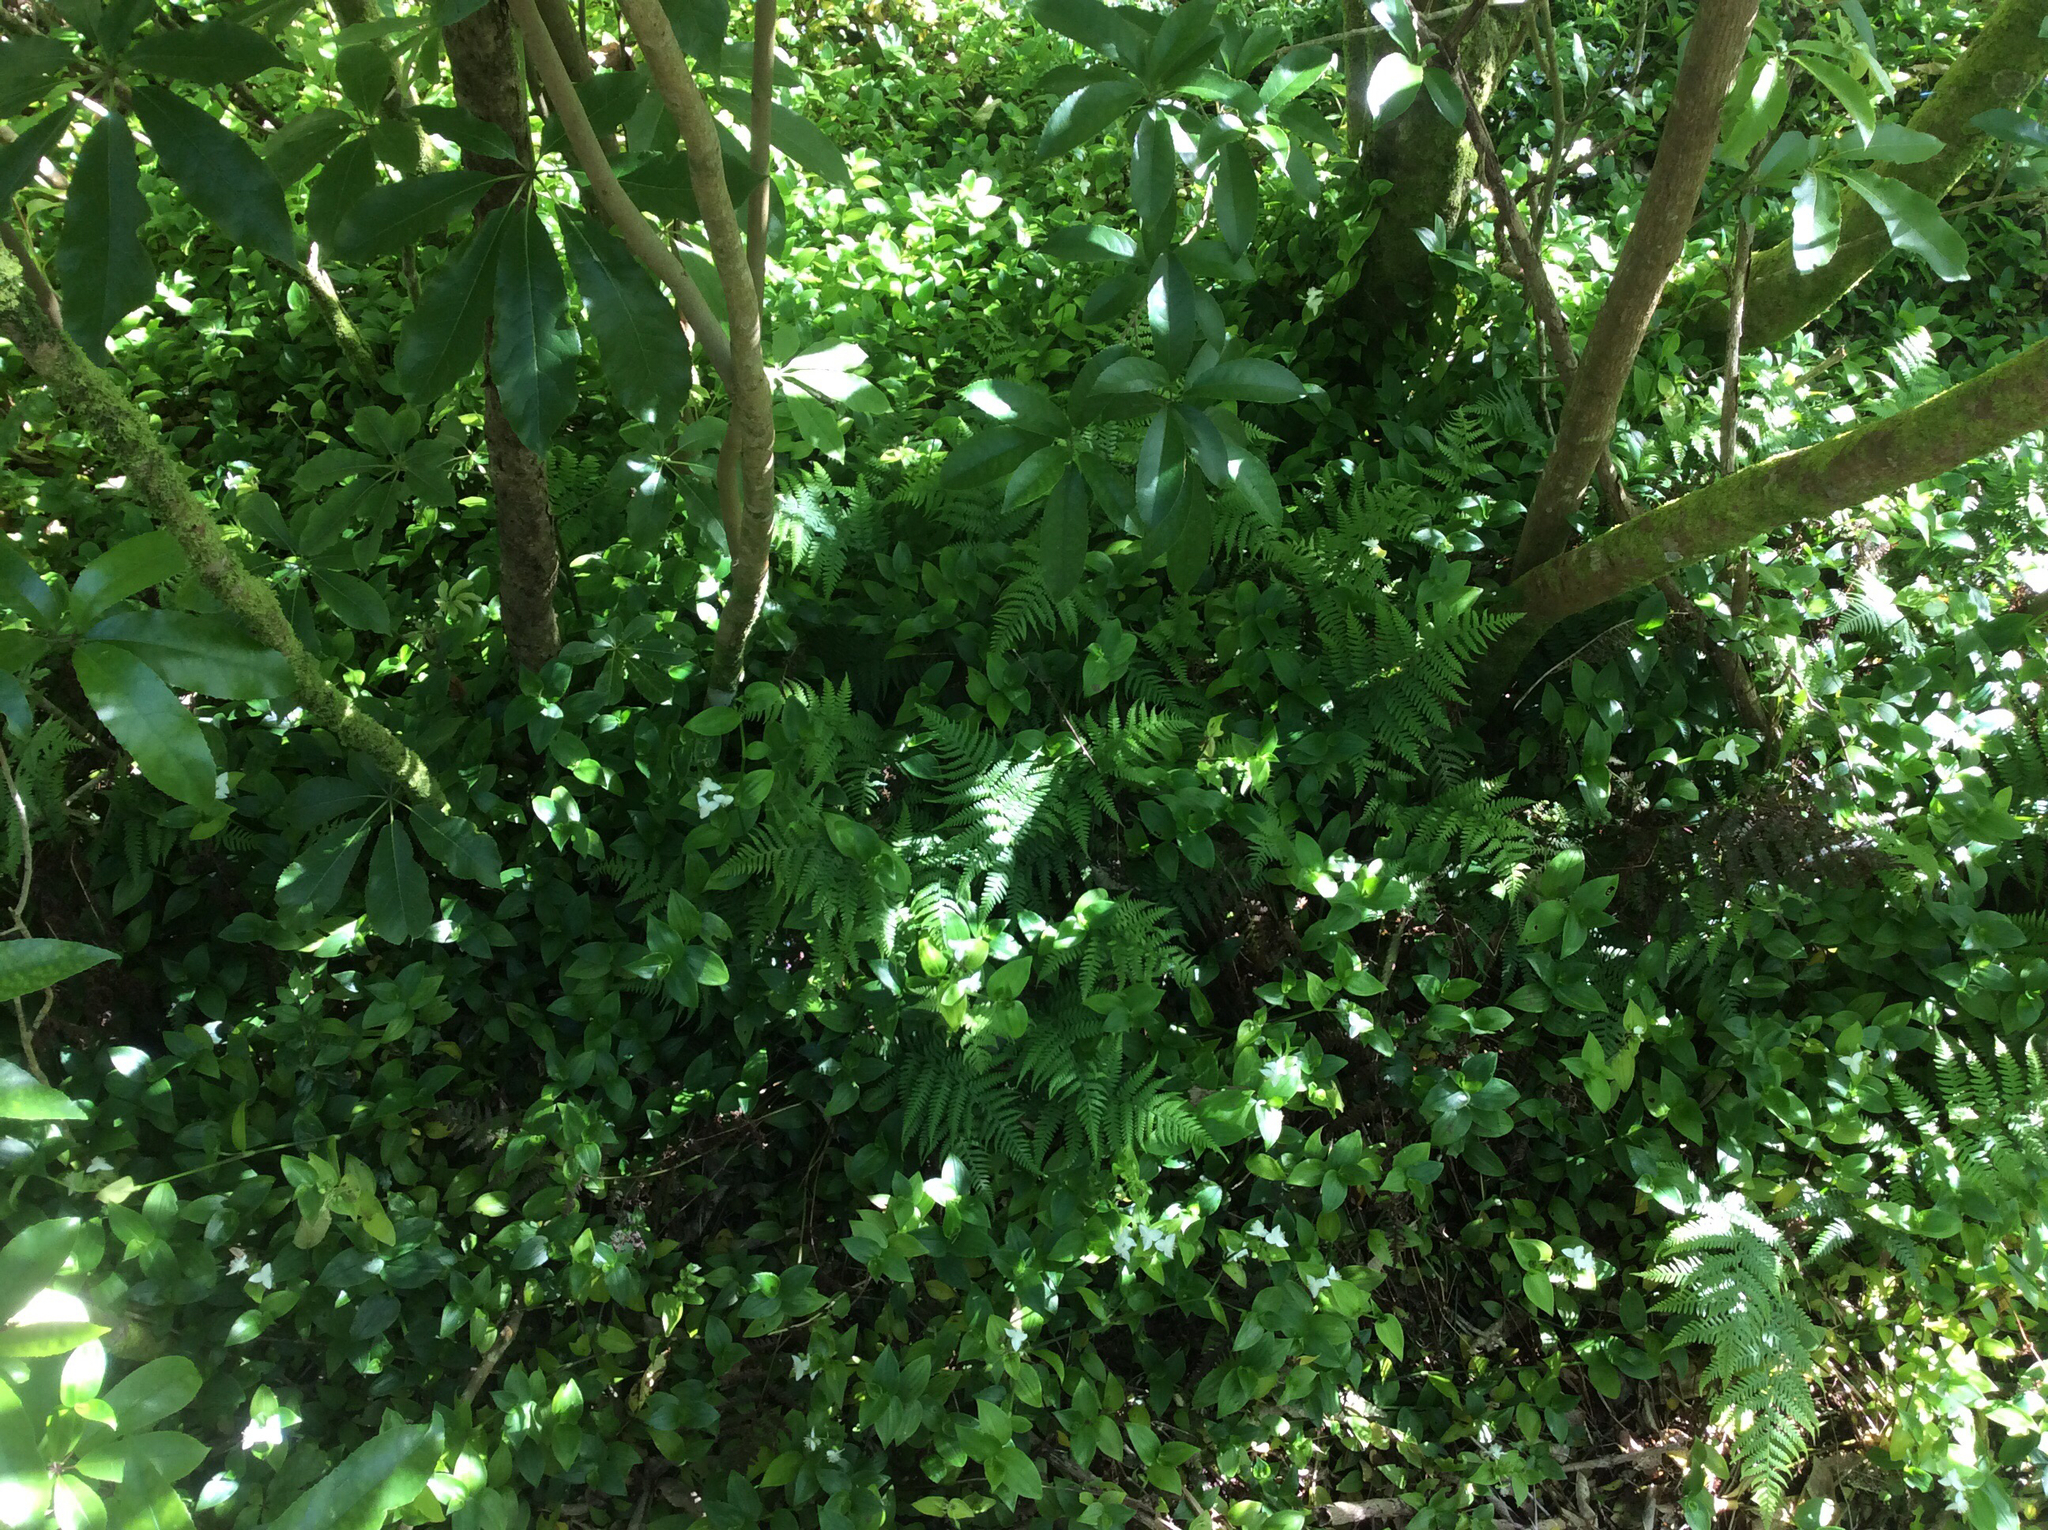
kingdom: Plantae
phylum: Tracheophyta
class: Polypodiopsida
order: Polypodiales
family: Athyriaceae
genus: Diplazium
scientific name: Diplazium congruum
